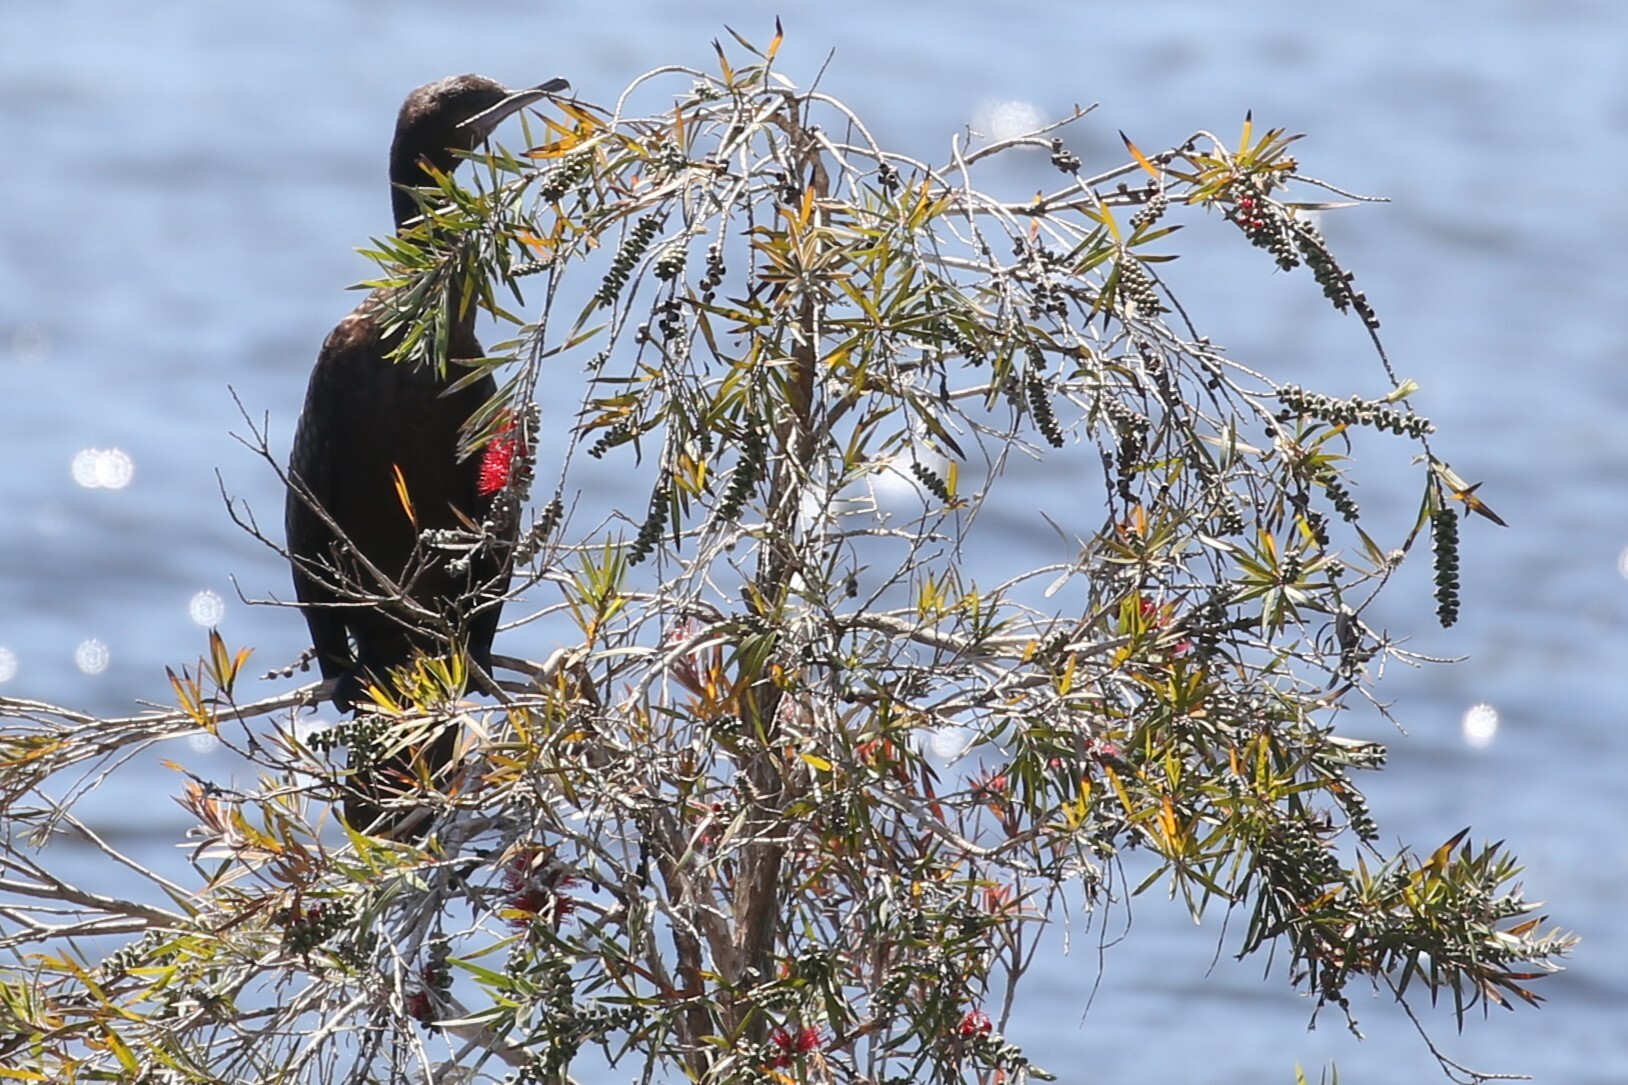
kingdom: Animalia
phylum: Chordata
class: Aves
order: Suliformes
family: Phalacrocoracidae
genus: Phalacrocorax
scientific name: Phalacrocorax sulcirostris
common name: Little black cormorant
